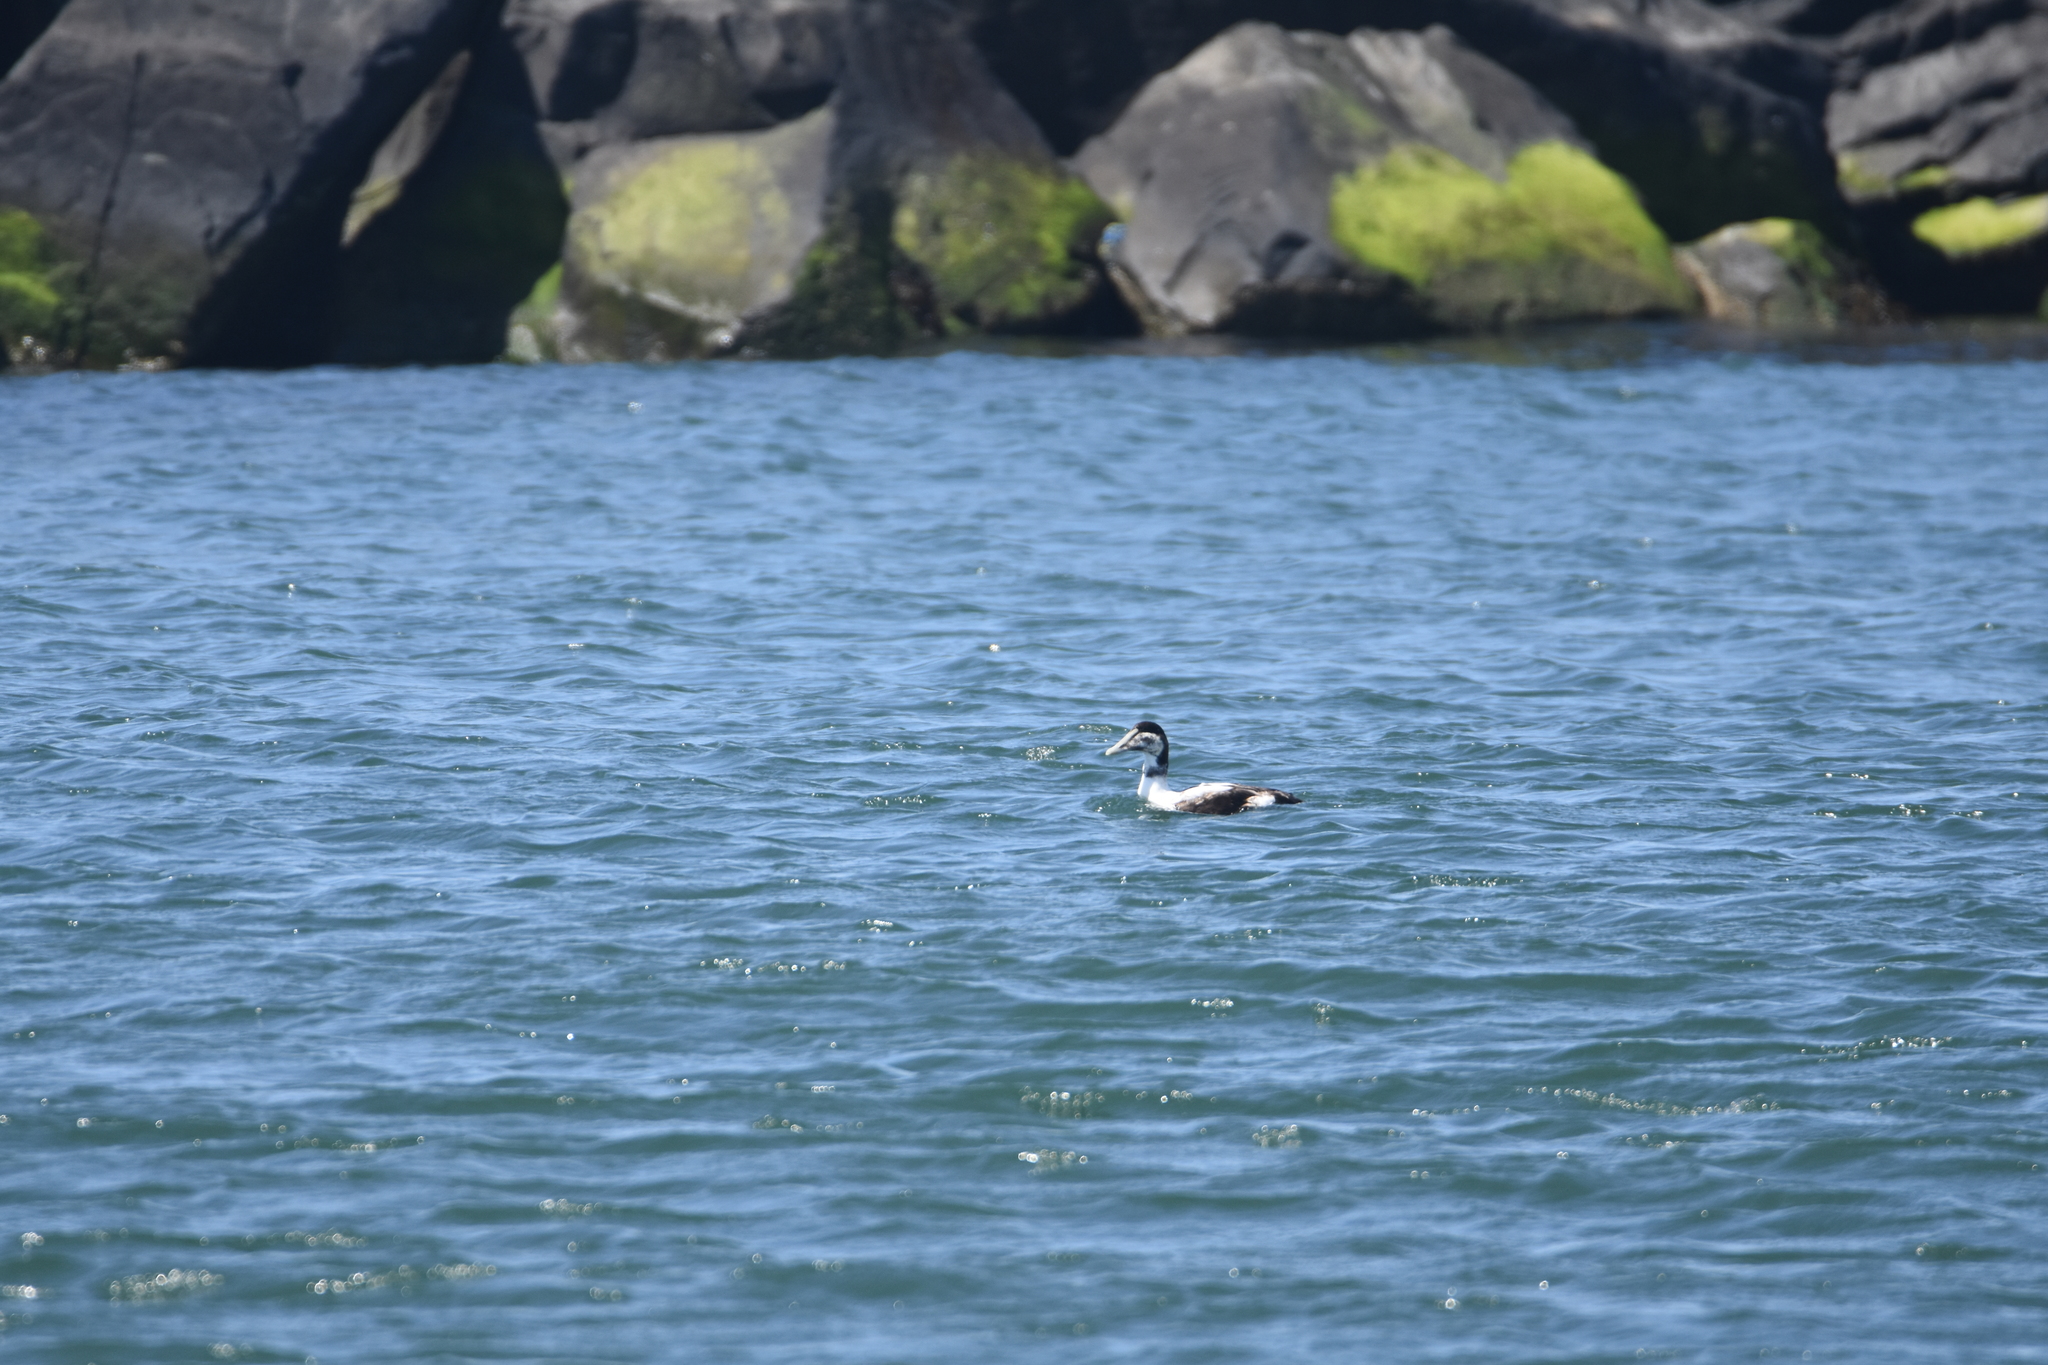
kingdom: Animalia
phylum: Chordata
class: Aves
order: Anseriformes
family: Anatidae
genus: Somateria
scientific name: Somateria mollissima
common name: Common eider
